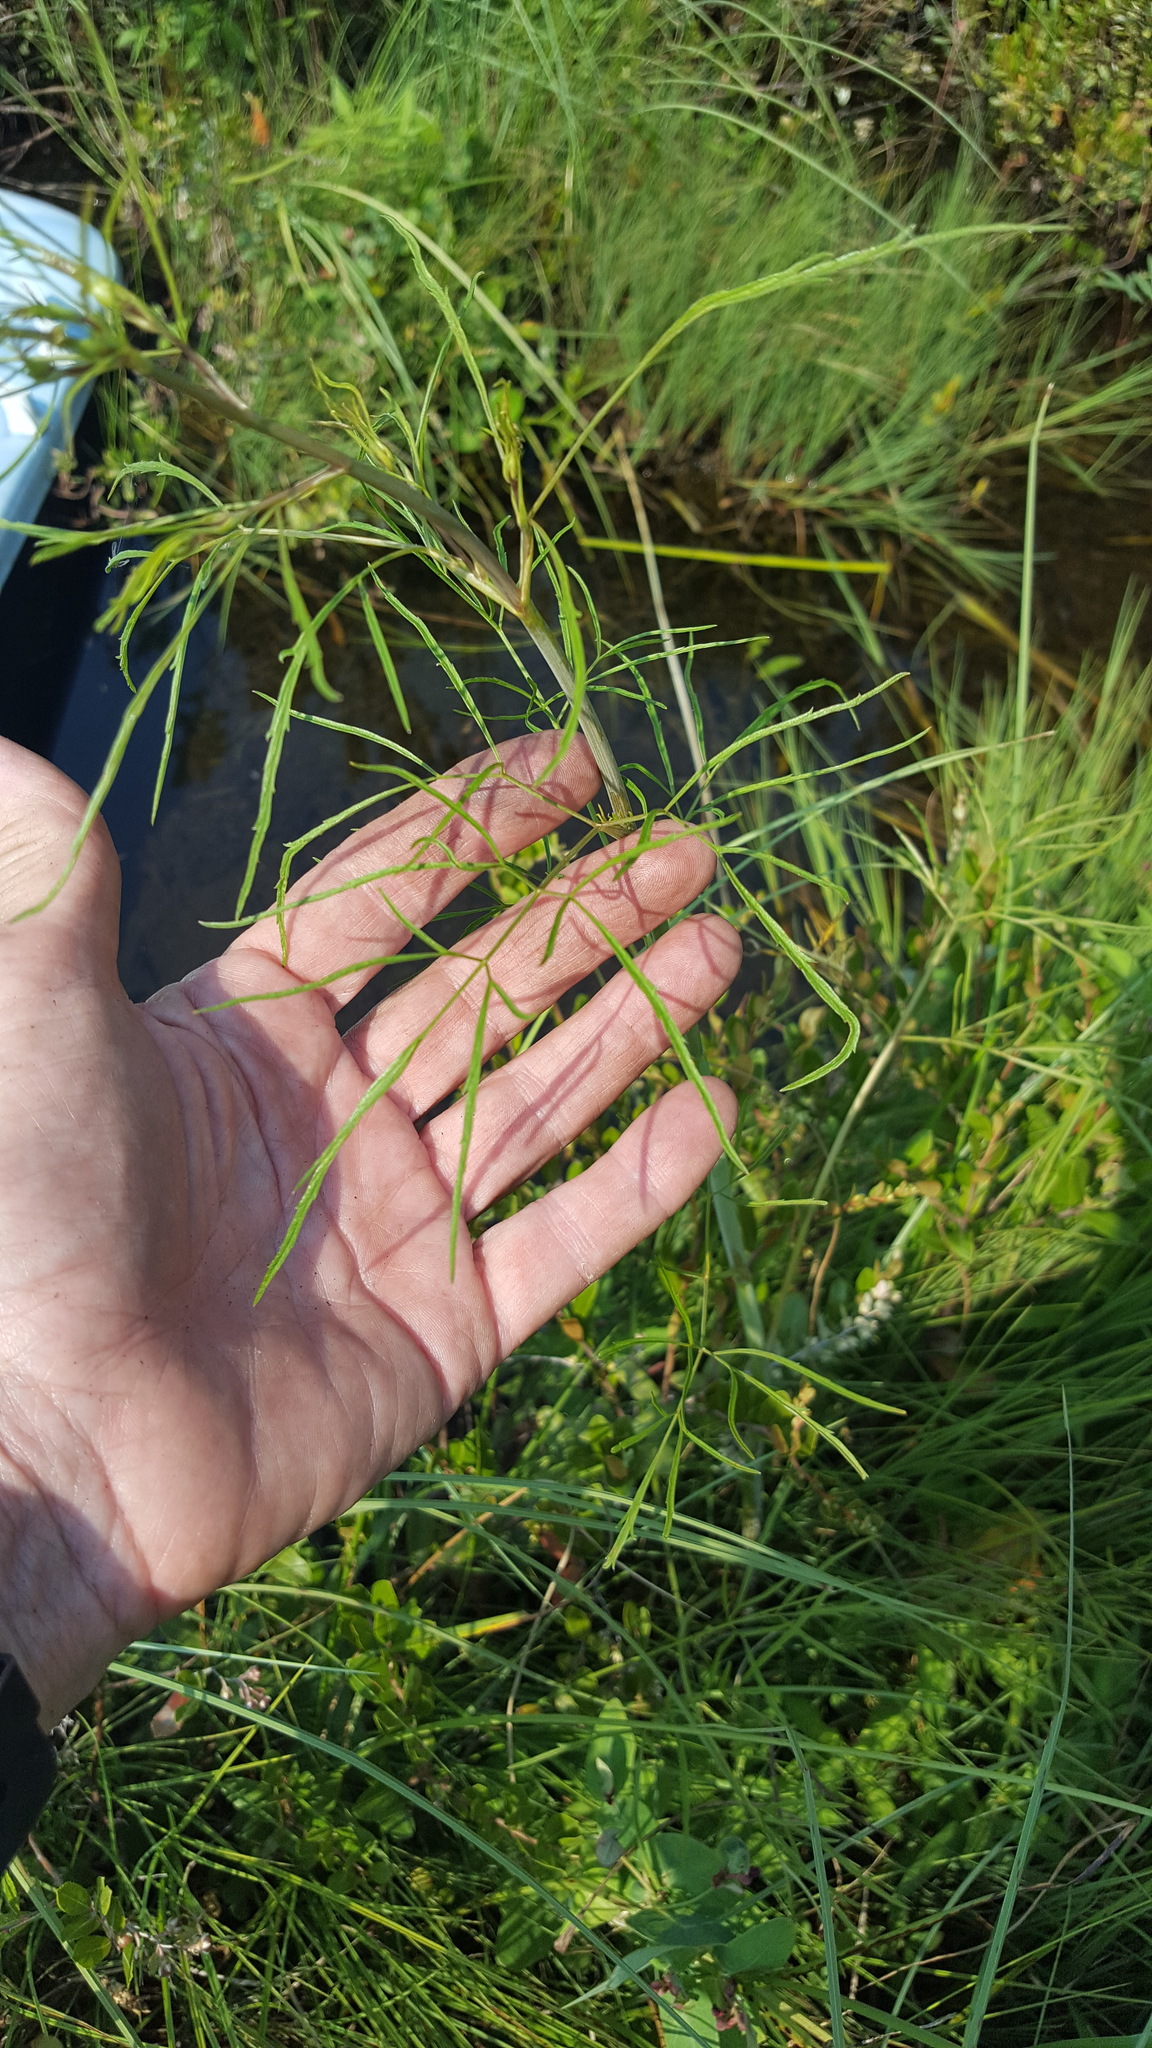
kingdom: Plantae
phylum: Tracheophyta
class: Magnoliopsida
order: Apiales
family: Apiaceae
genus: Cicuta
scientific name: Cicuta bulbifera
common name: Bulb-bearing water-hemlock
